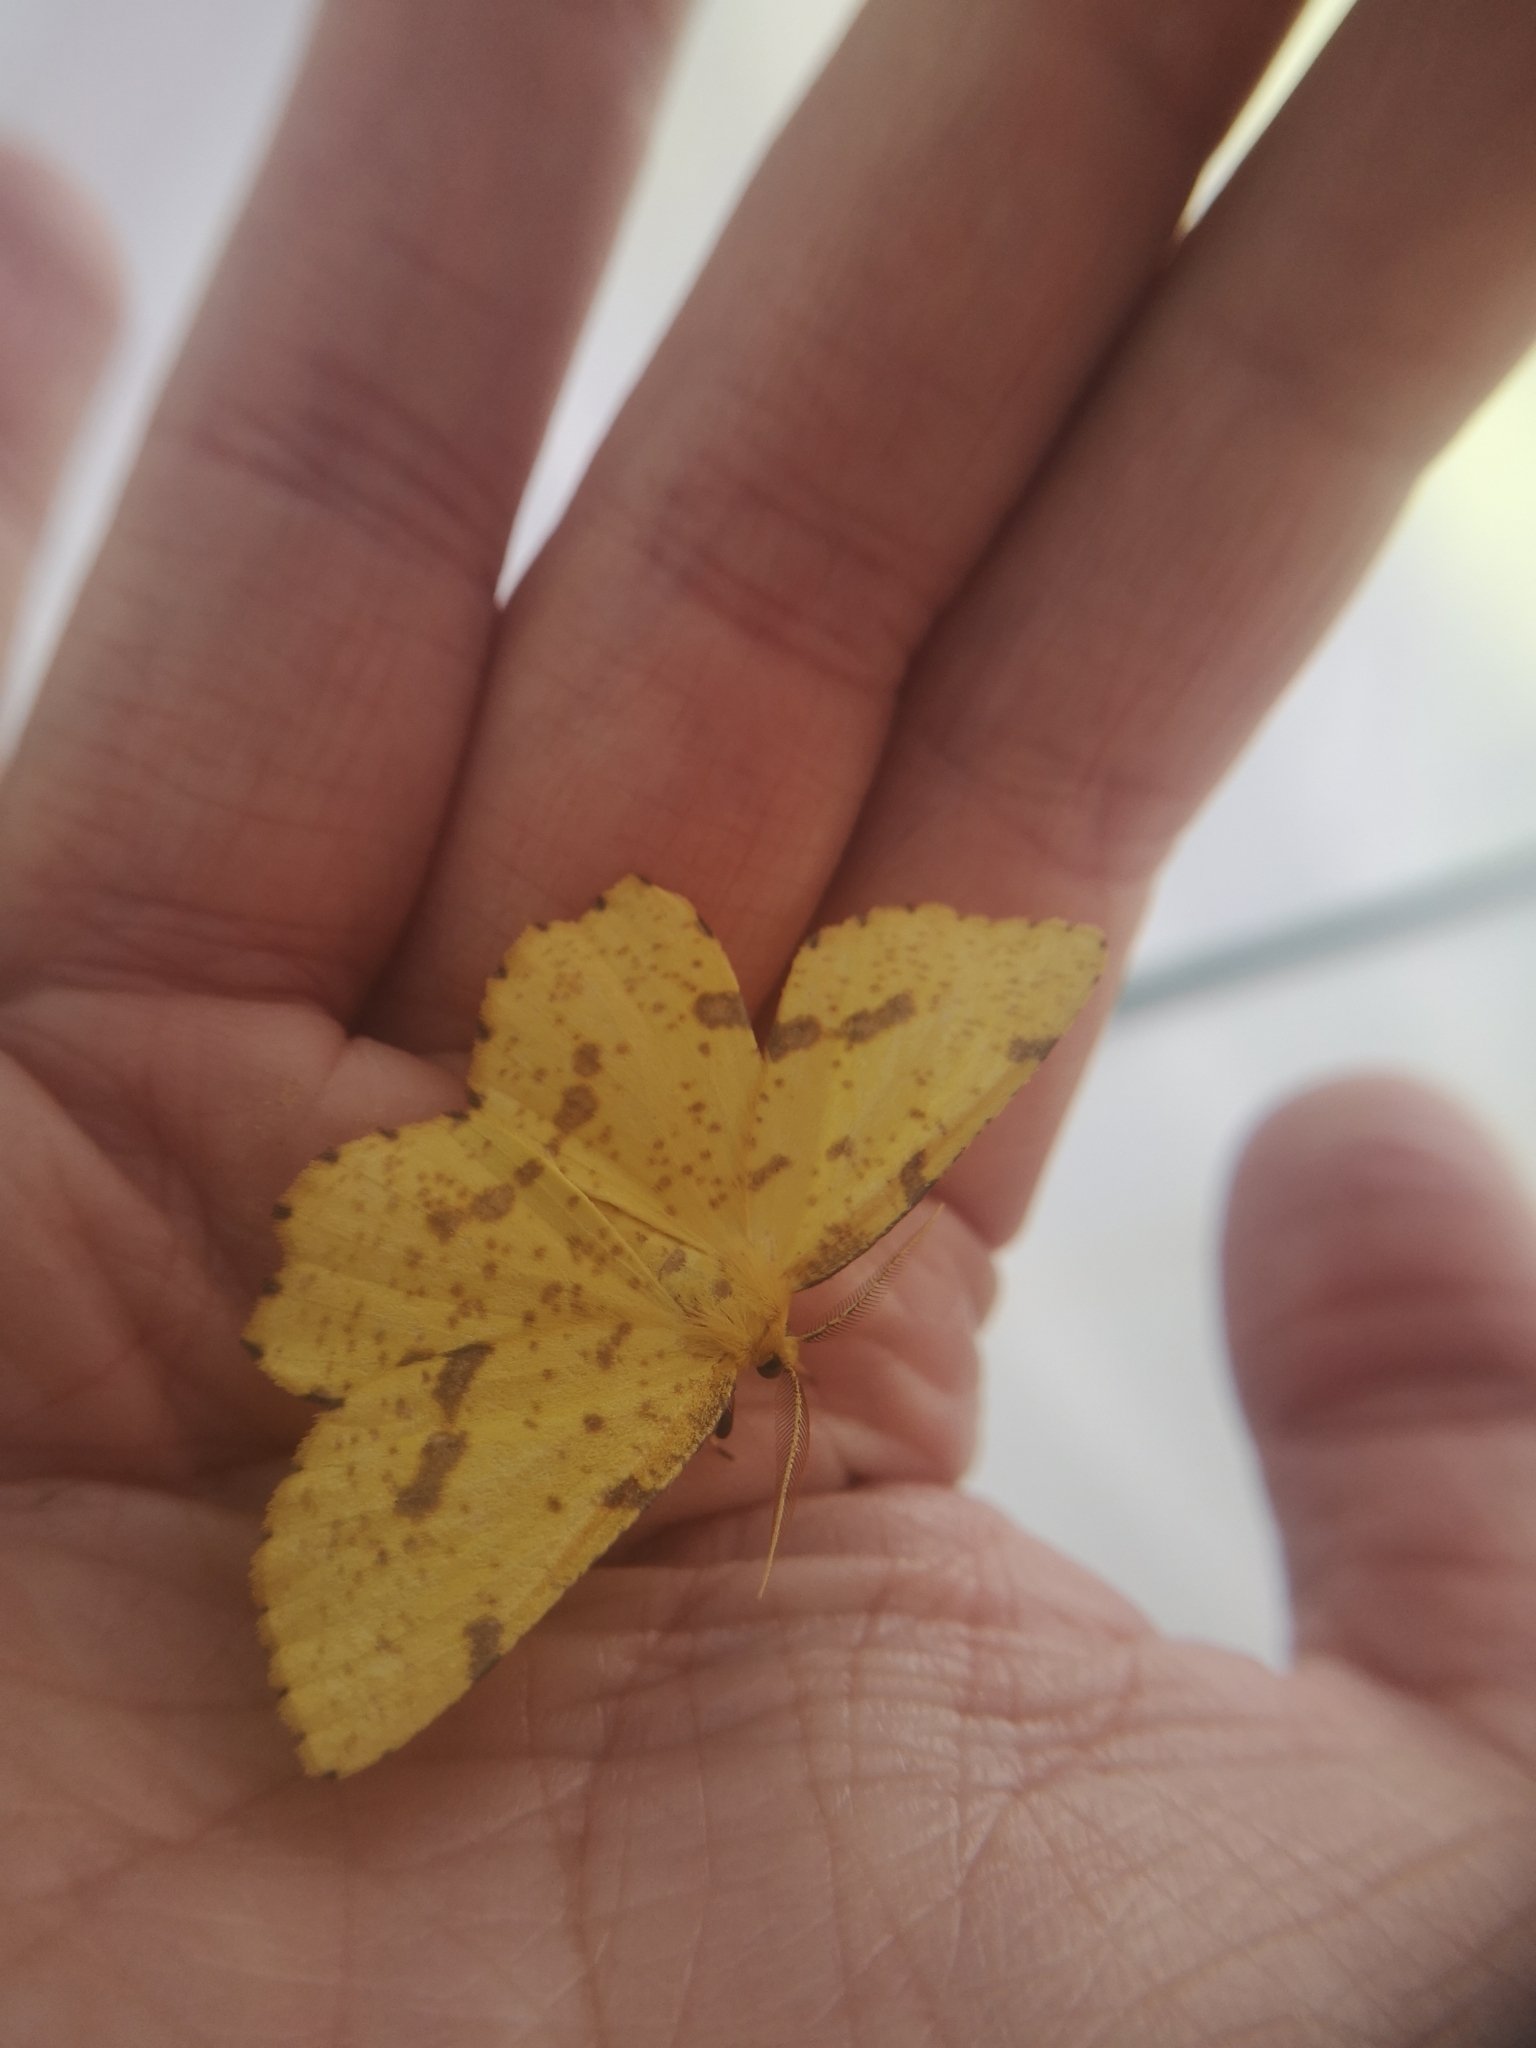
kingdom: Animalia
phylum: Arthropoda
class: Insecta
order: Lepidoptera
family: Geometridae
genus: Xanthotype
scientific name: Xanthotype
